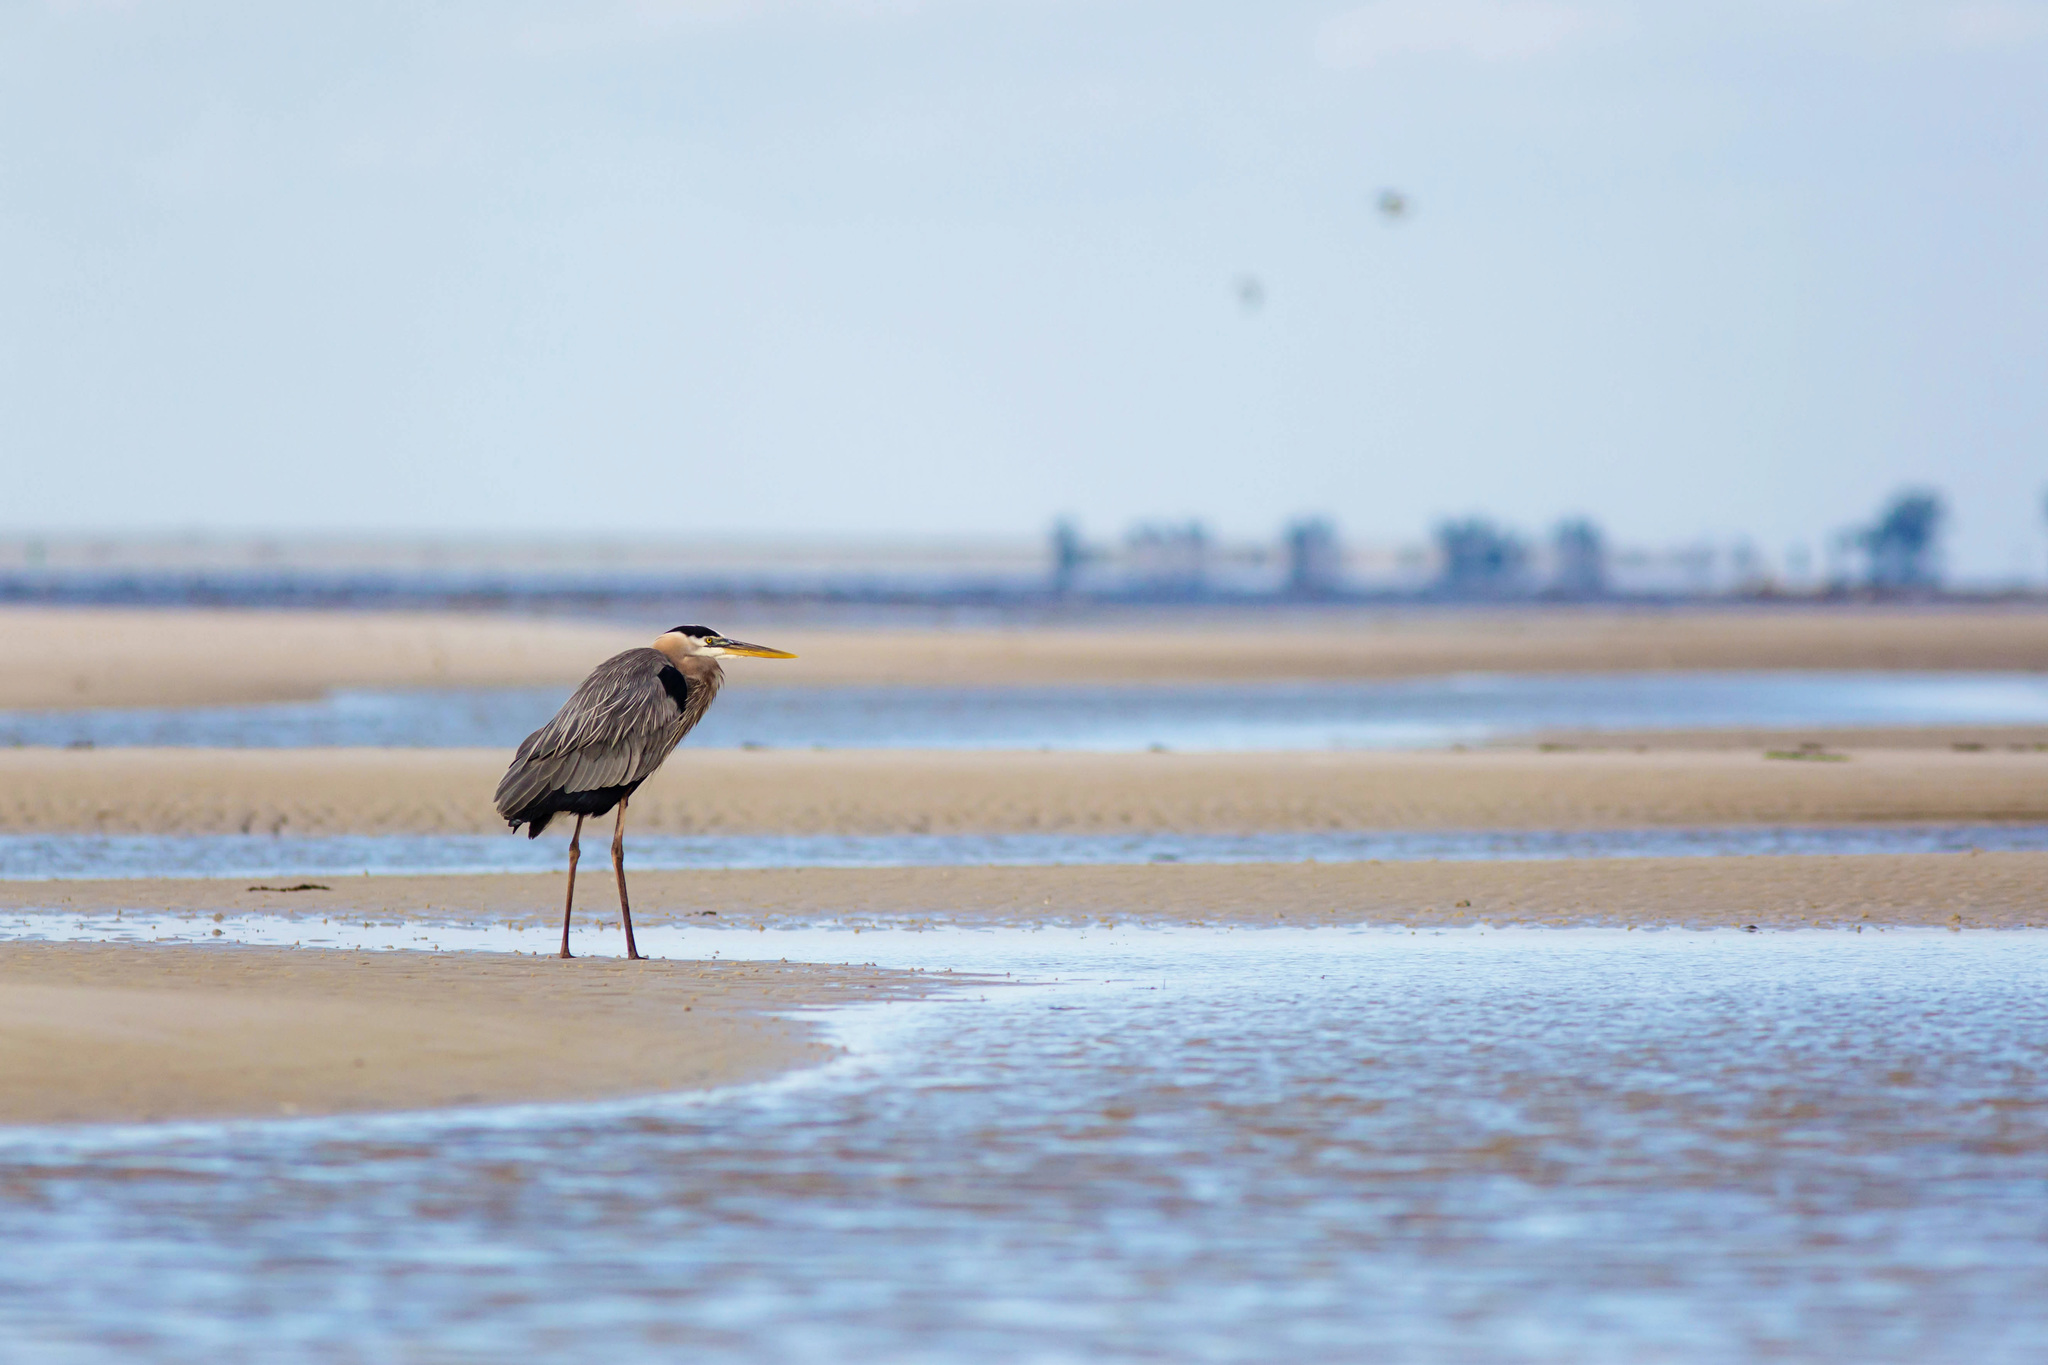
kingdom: Animalia
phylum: Chordata
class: Aves
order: Pelecaniformes
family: Ardeidae
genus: Ardea
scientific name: Ardea herodias
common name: Great blue heron
